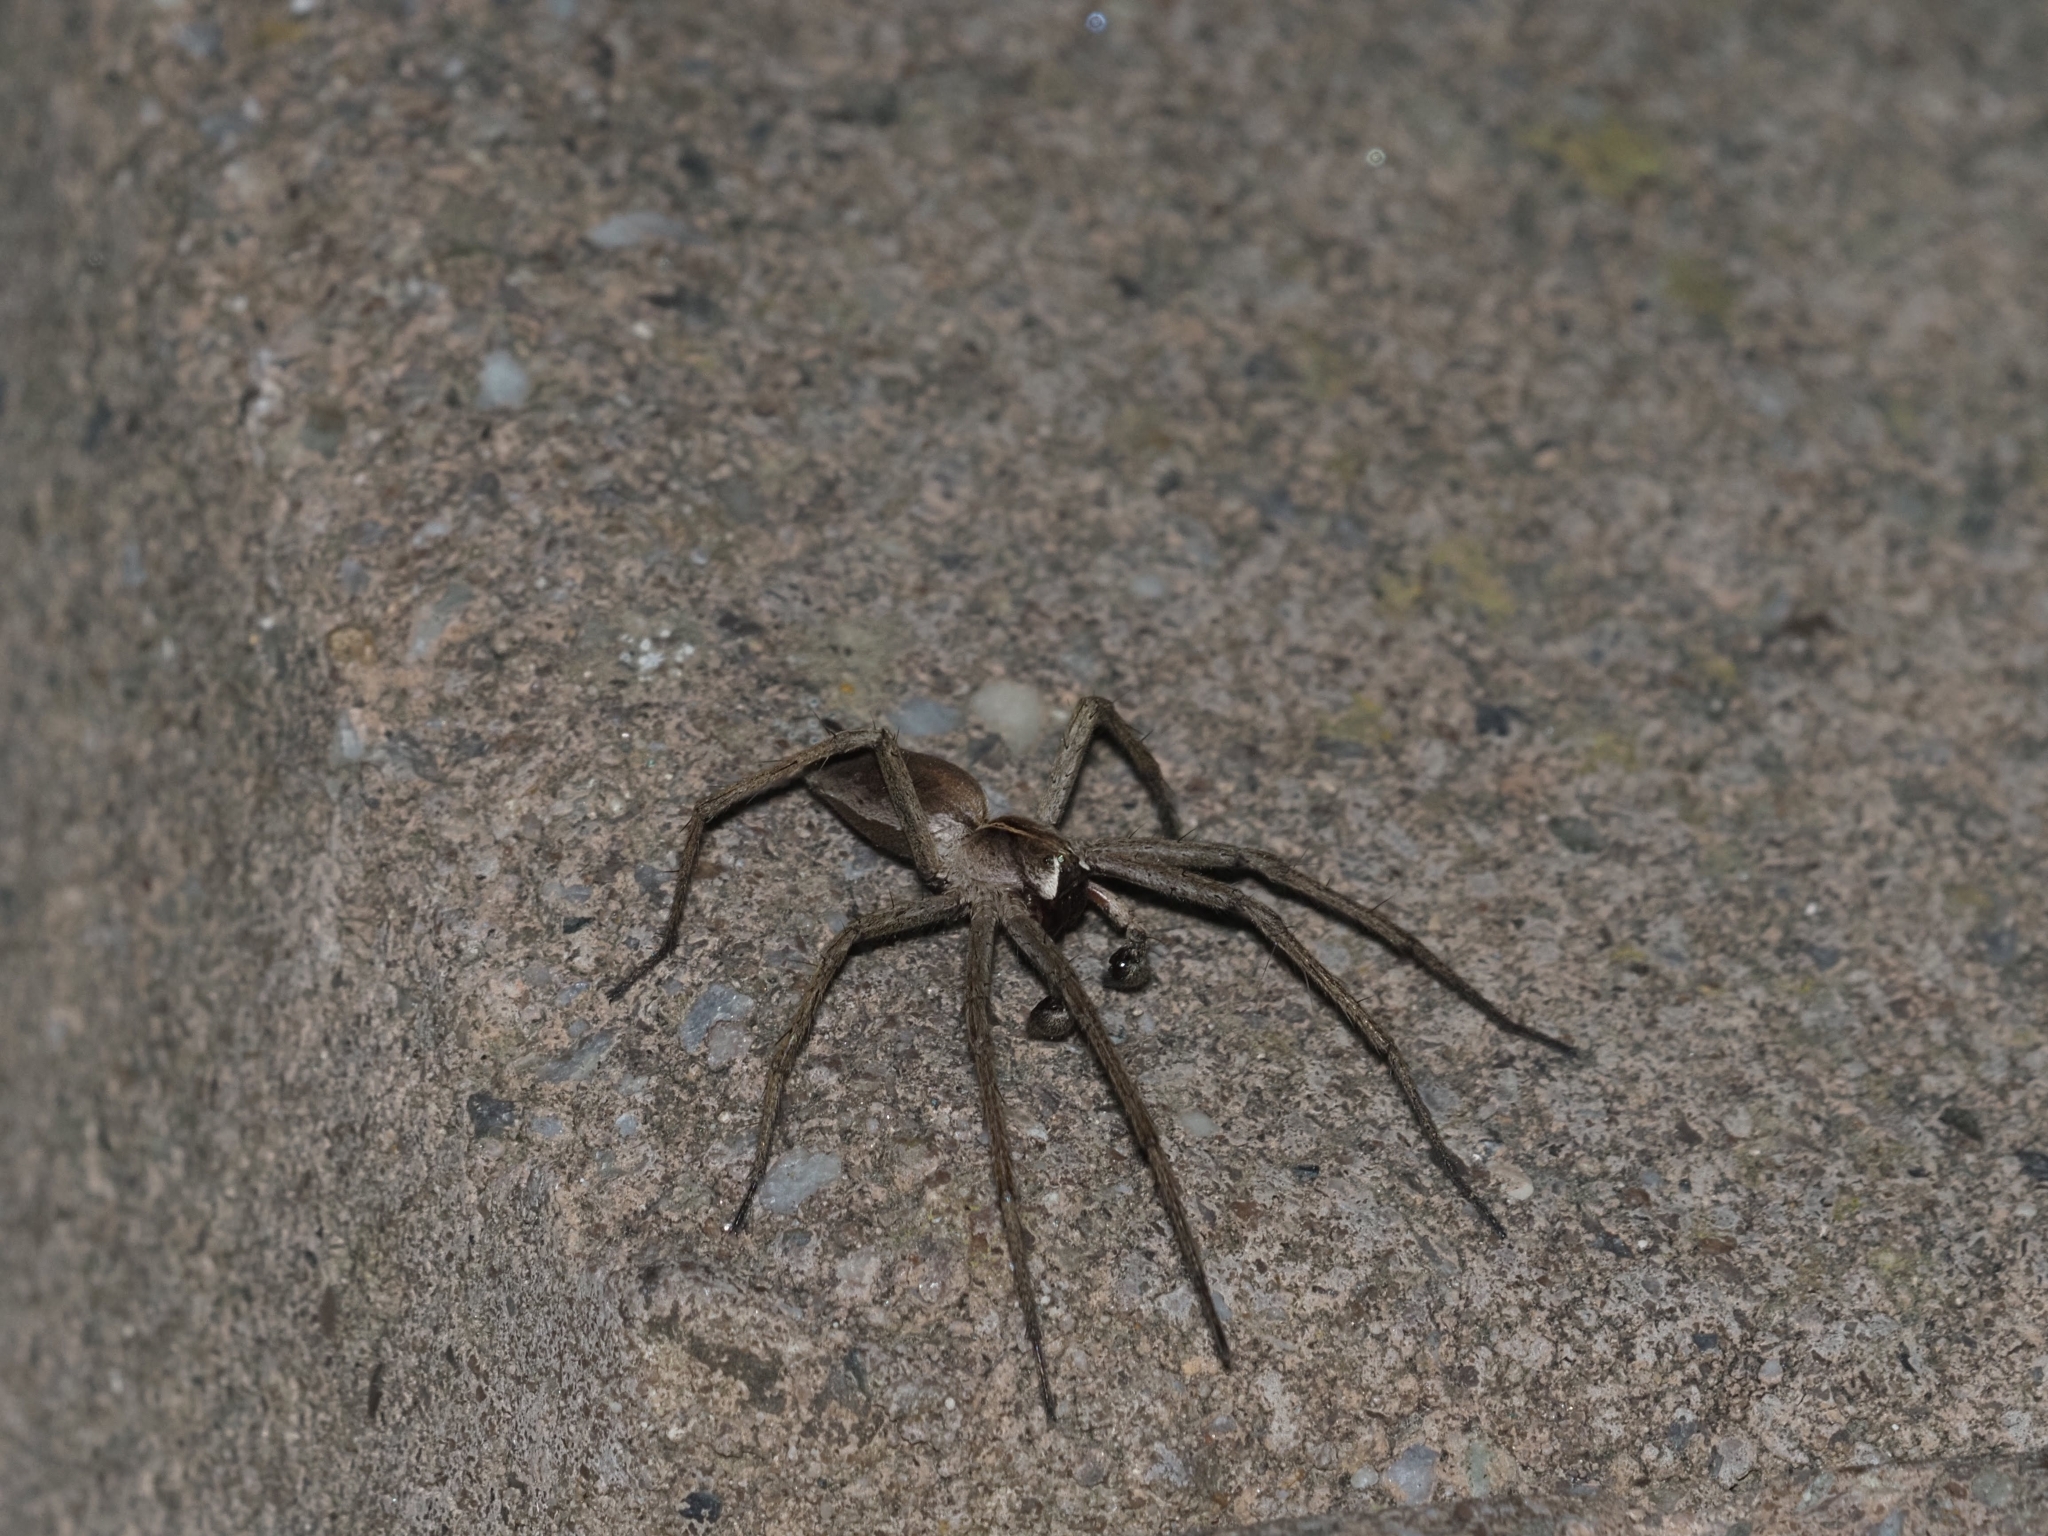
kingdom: Animalia
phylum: Arthropoda
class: Arachnida
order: Araneae
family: Pisauridae
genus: Pisaura
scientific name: Pisaura mirabilis
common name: Tent spider
